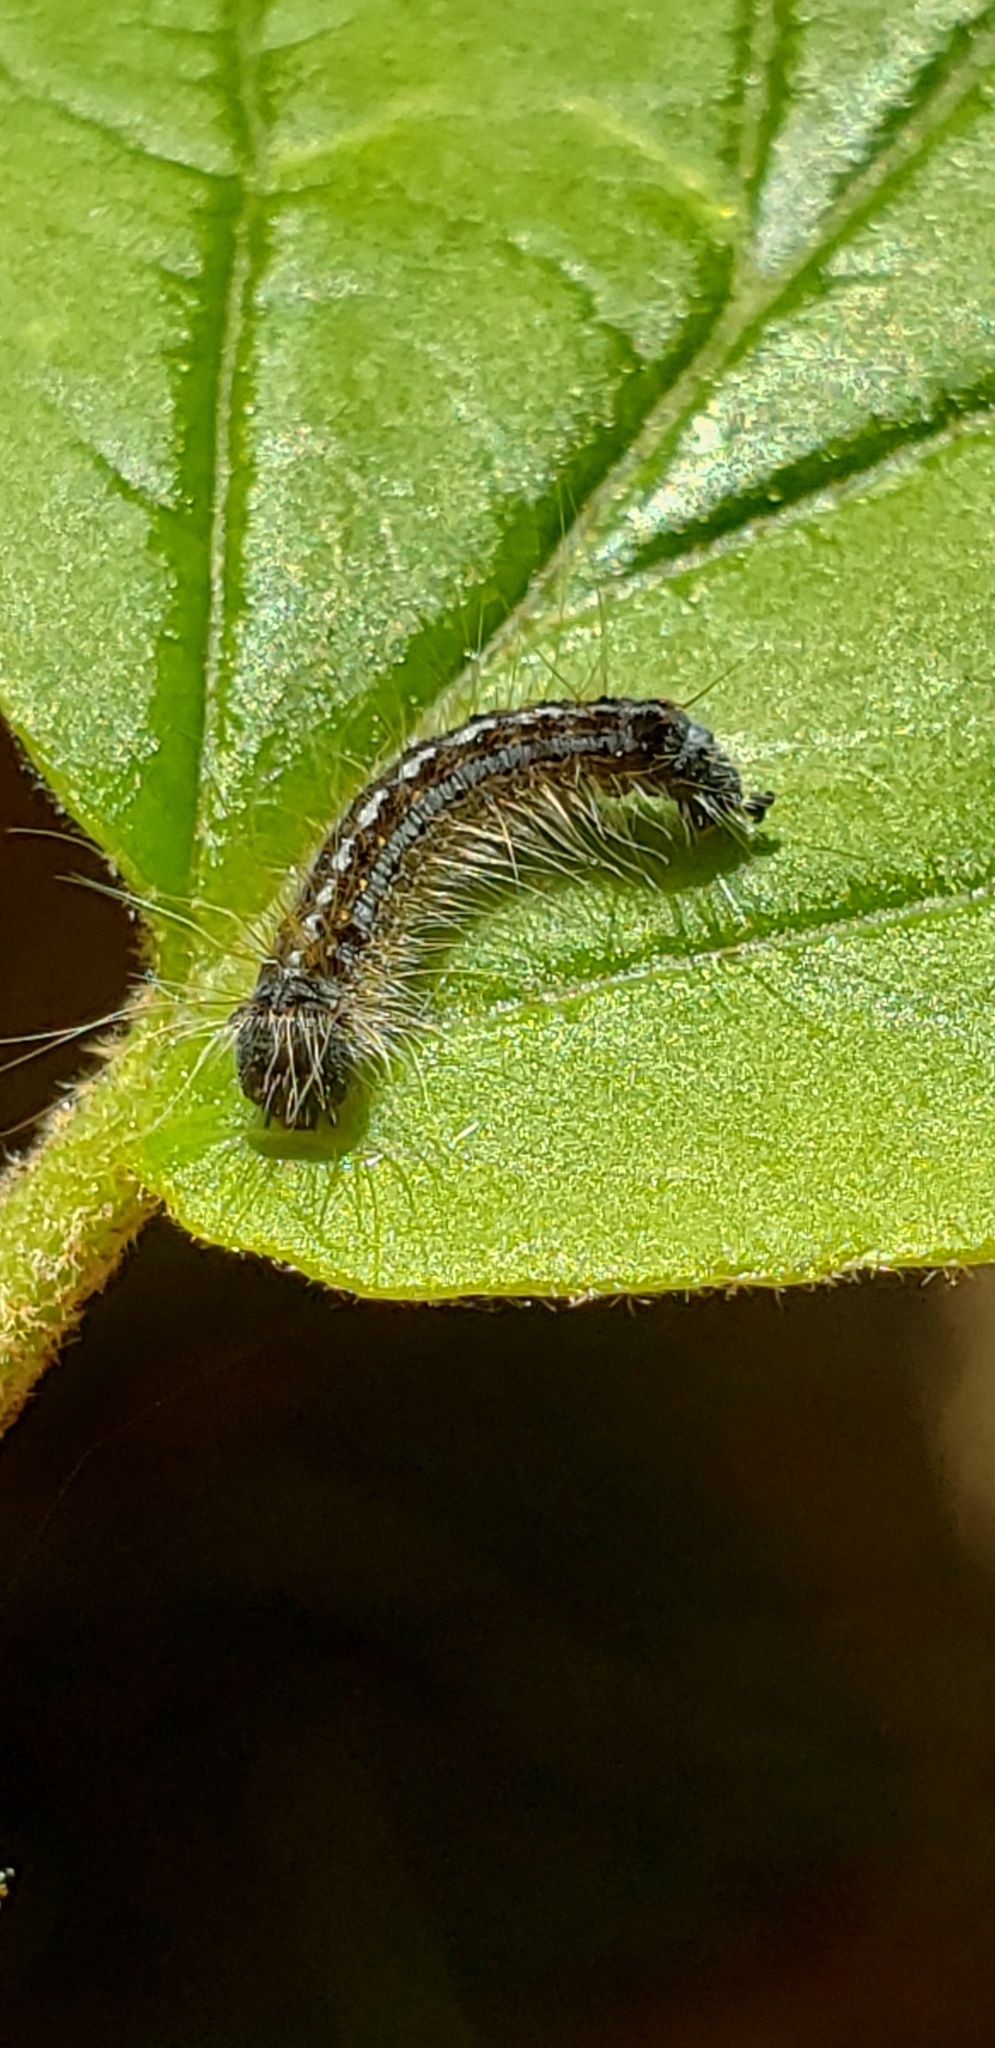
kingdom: Animalia
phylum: Arthropoda
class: Insecta
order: Lepidoptera
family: Lasiocampidae
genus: Malacosoma
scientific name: Malacosoma disstria
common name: Forest tent caterpillar
